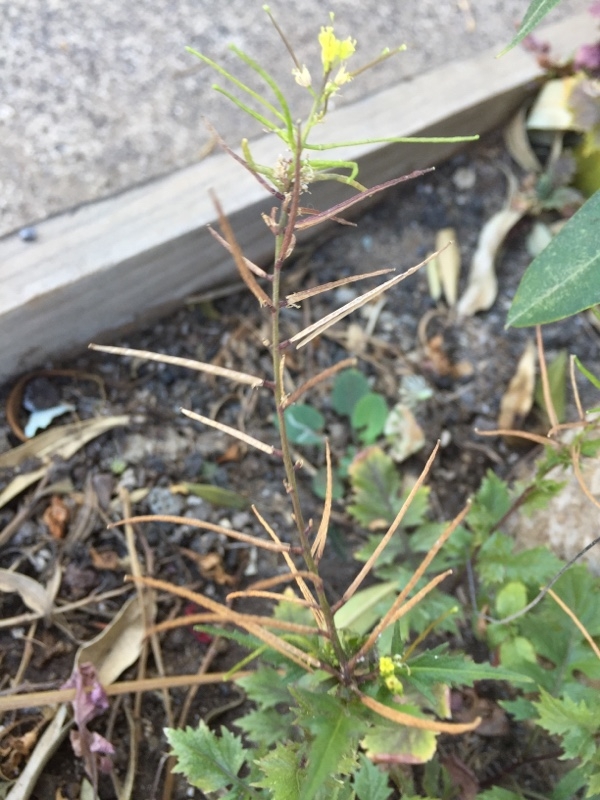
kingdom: Plantae
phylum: Tracheophyta
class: Magnoliopsida
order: Brassicales
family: Brassicaceae
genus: Sisymbrium
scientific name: Sisymbrium erysimoides
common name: French rocket
